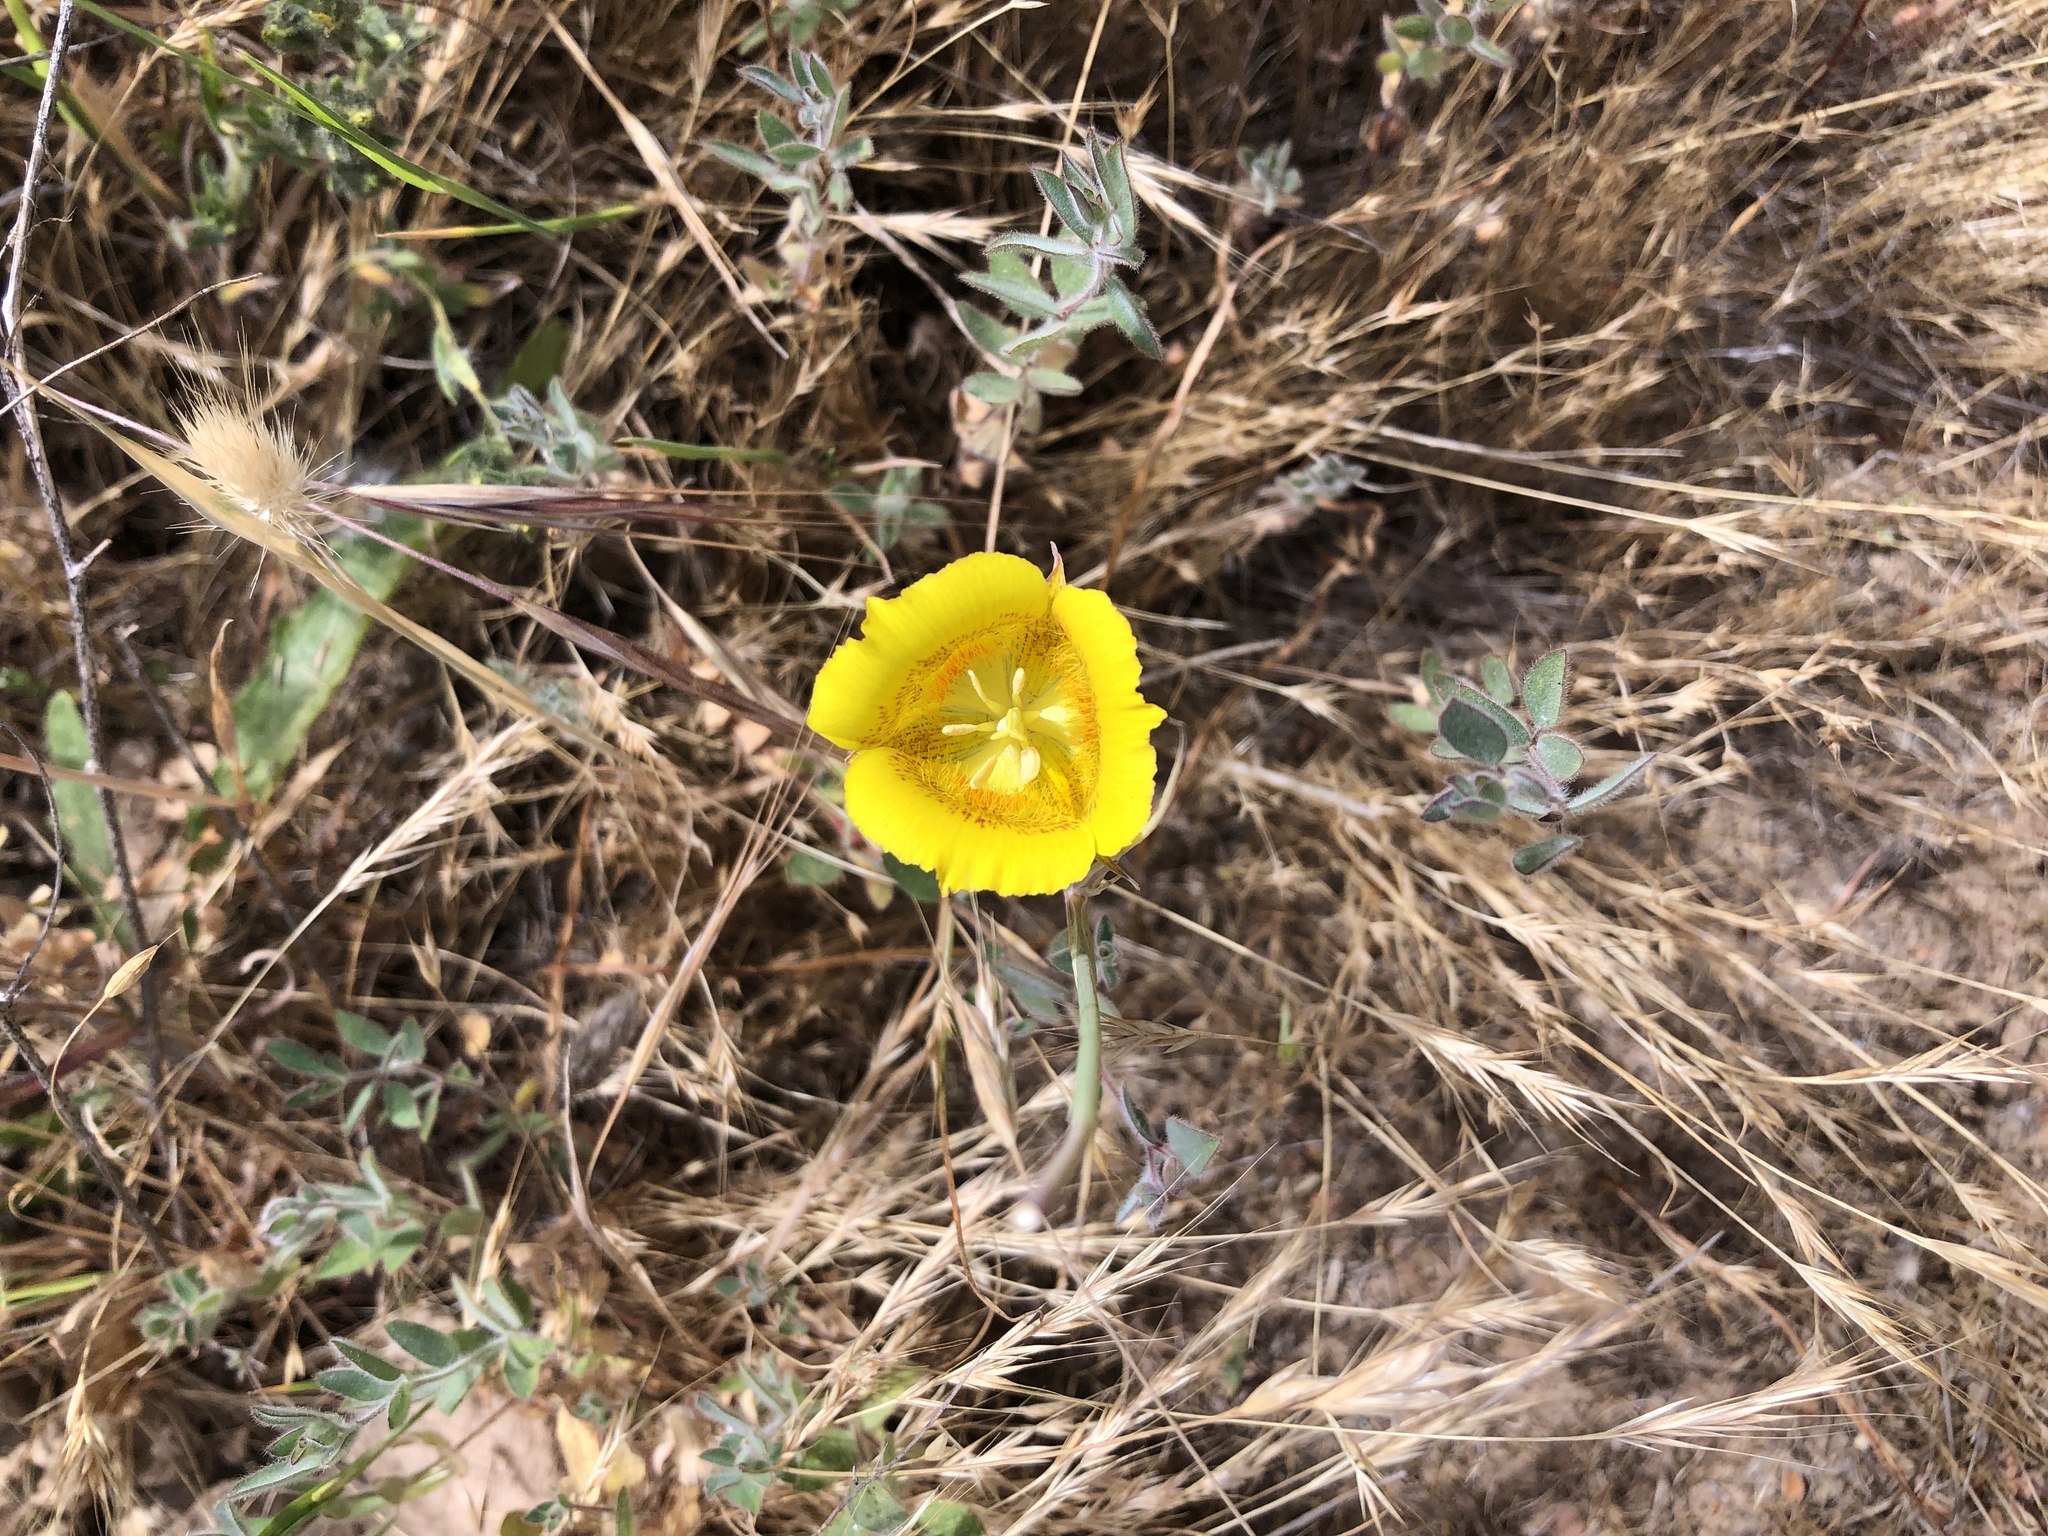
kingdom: Plantae
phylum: Tracheophyta
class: Liliopsida
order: Liliales
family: Liliaceae
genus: Calochortus
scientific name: Calochortus luteus
